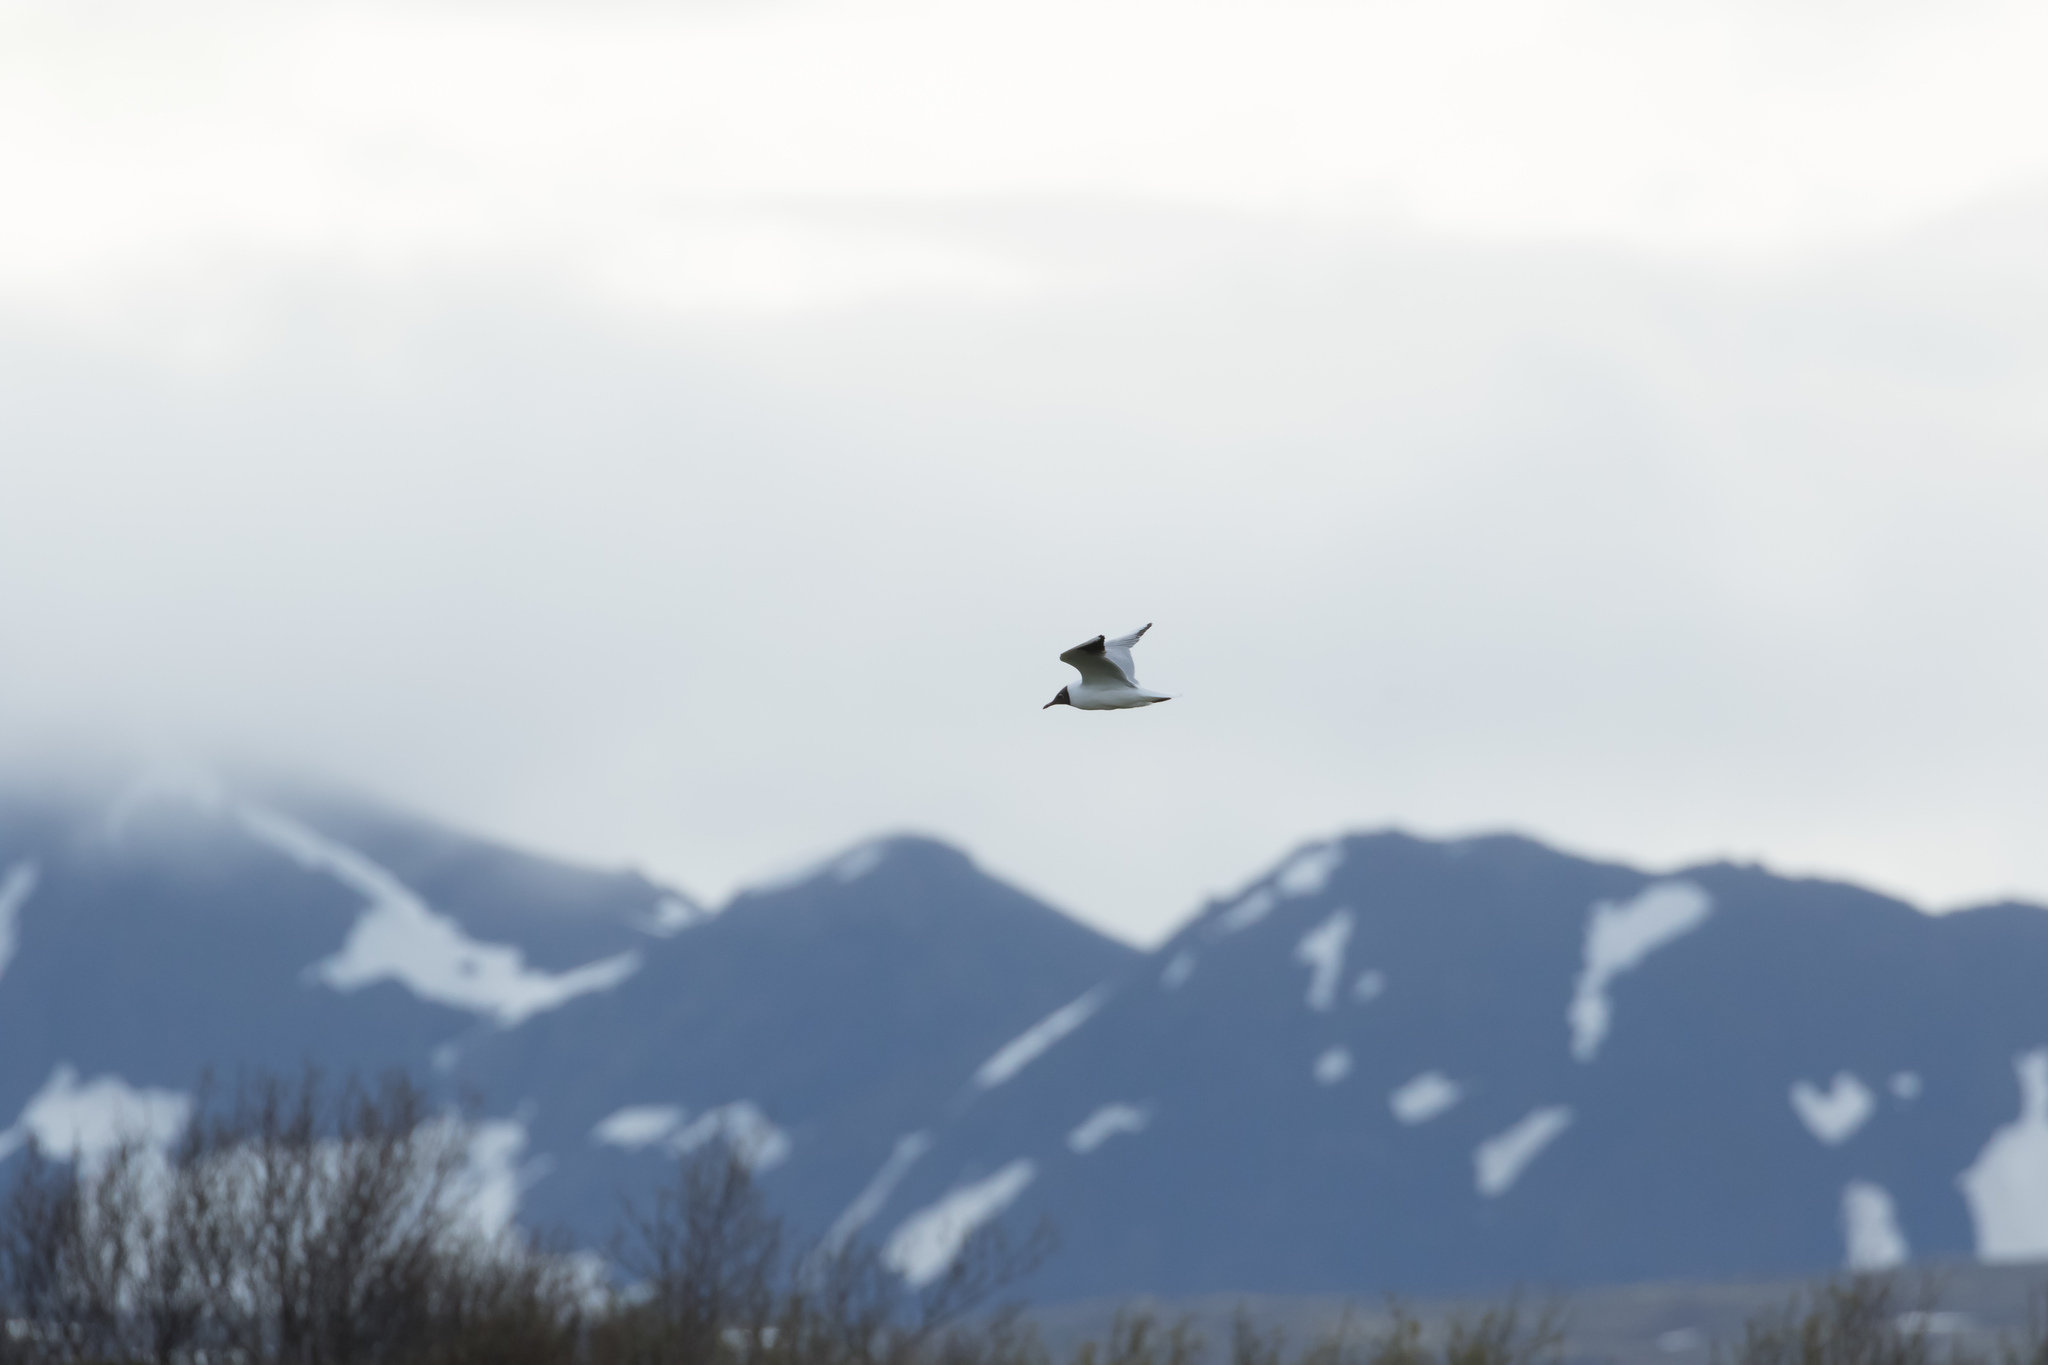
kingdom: Animalia
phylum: Chordata
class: Aves
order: Charadriiformes
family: Laridae
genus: Chroicocephalus
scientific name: Chroicocephalus ridibundus
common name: Black-headed gull
